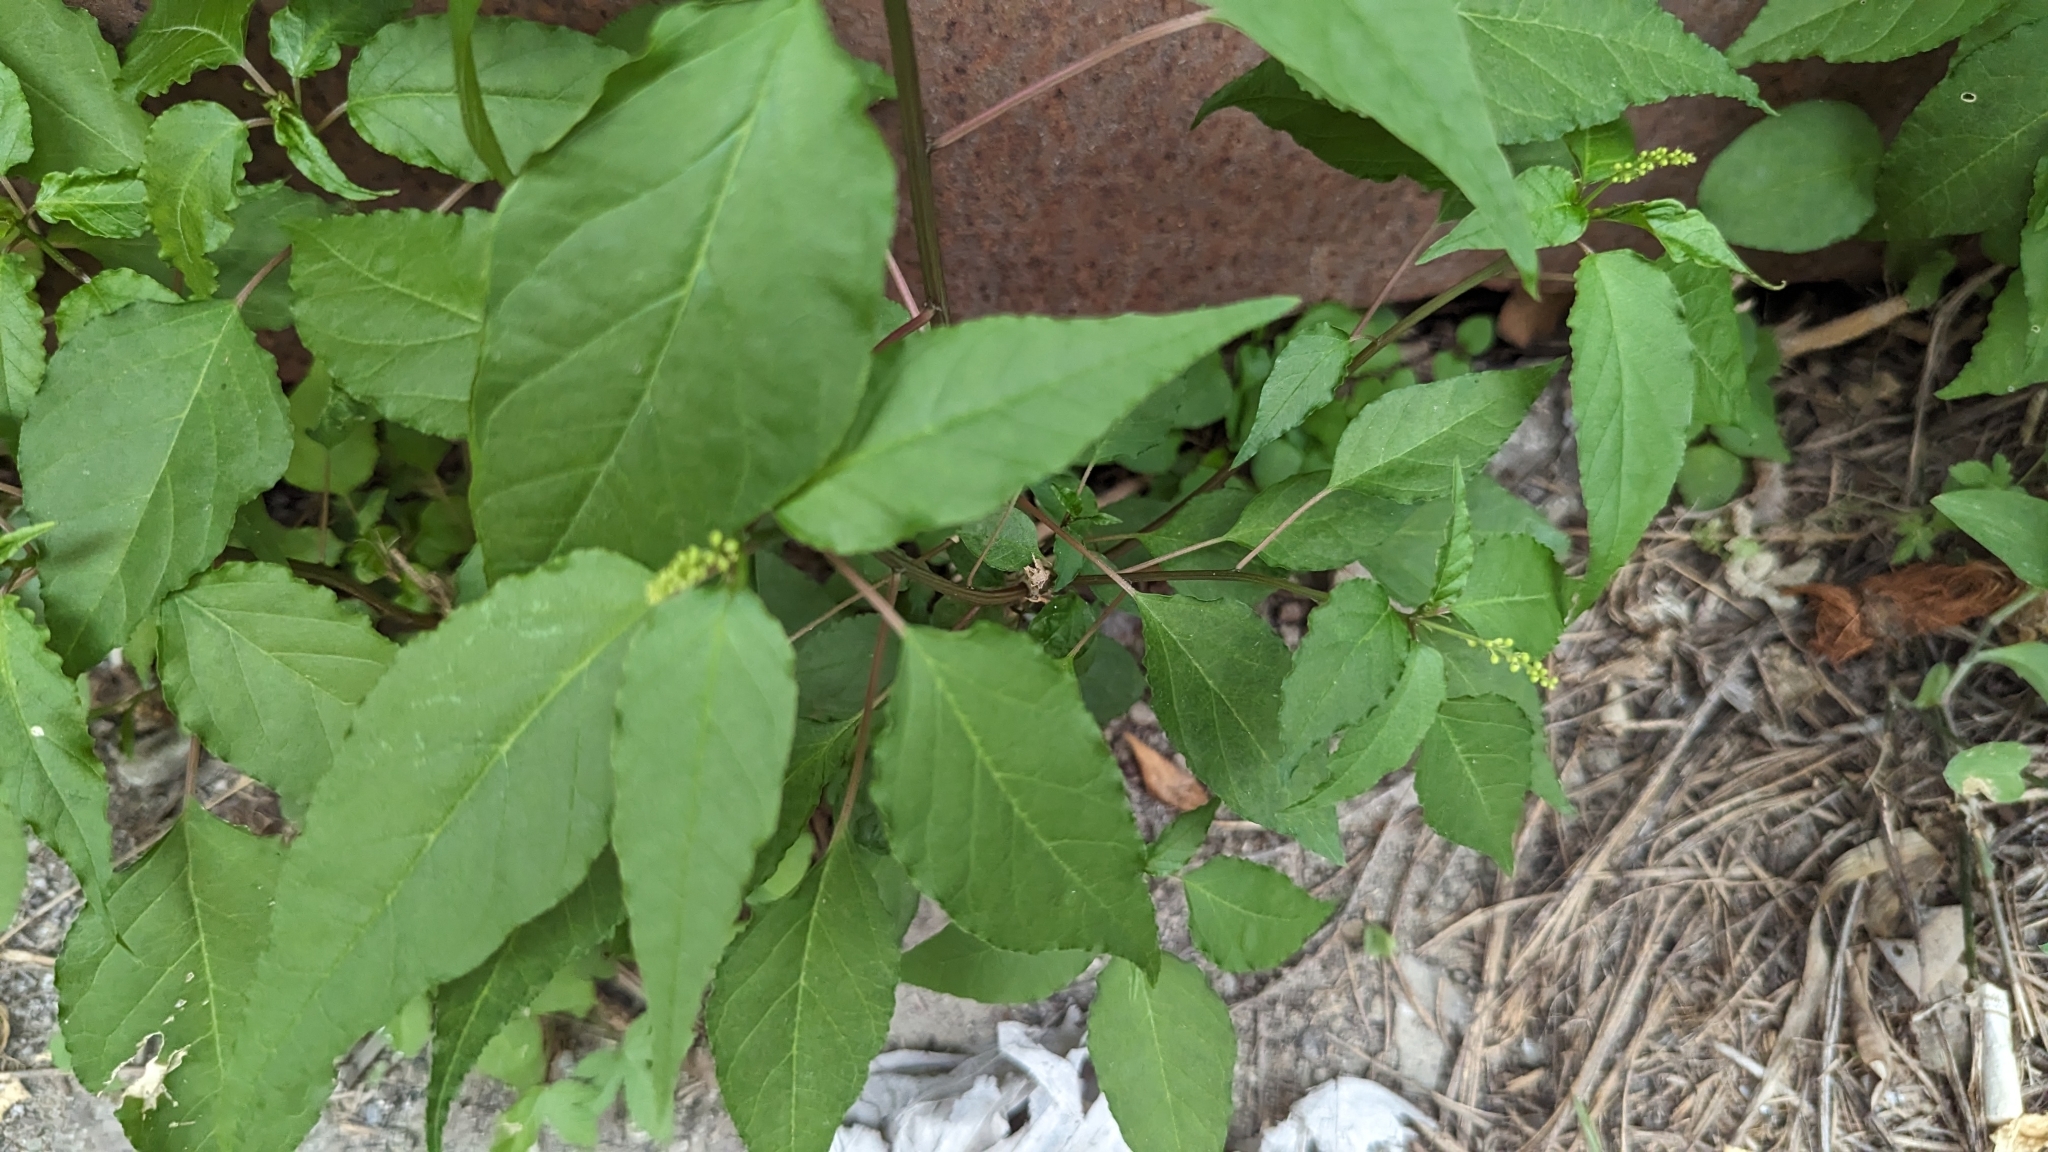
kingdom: Plantae
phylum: Tracheophyta
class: Magnoliopsida
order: Caryophyllales
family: Phytolaccaceae
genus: Rivina
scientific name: Rivina humilis
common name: Rougeplant
